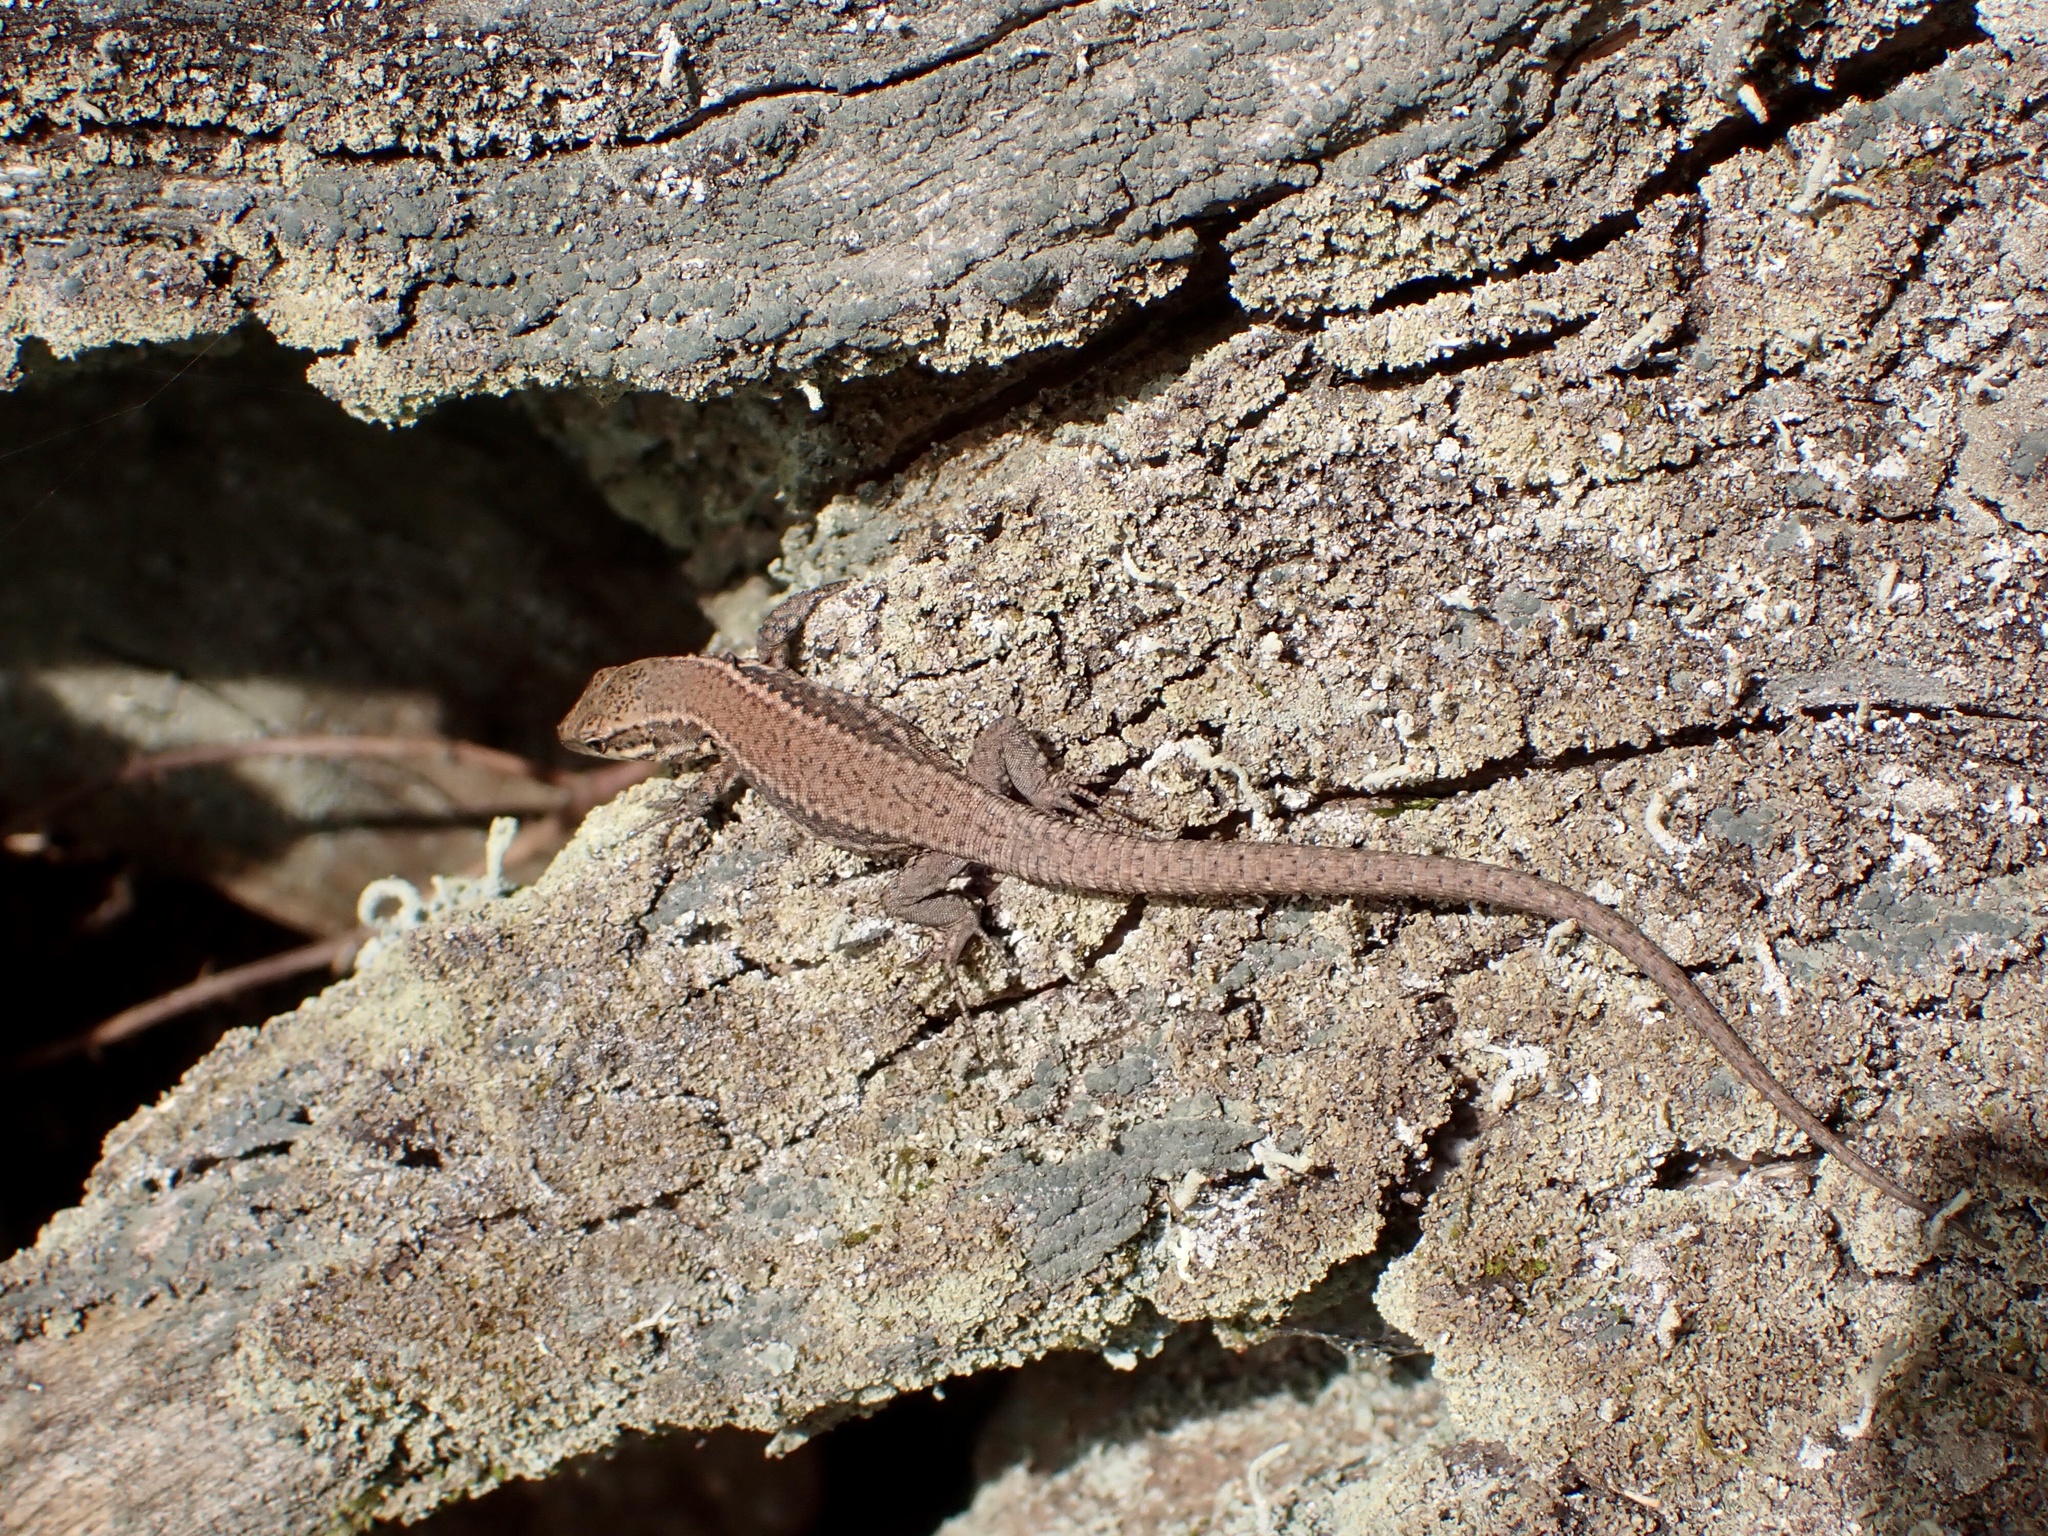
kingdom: Animalia
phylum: Chordata
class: Squamata
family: Lacertidae
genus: Podarcis
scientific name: Podarcis muralis
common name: Common wall lizard
